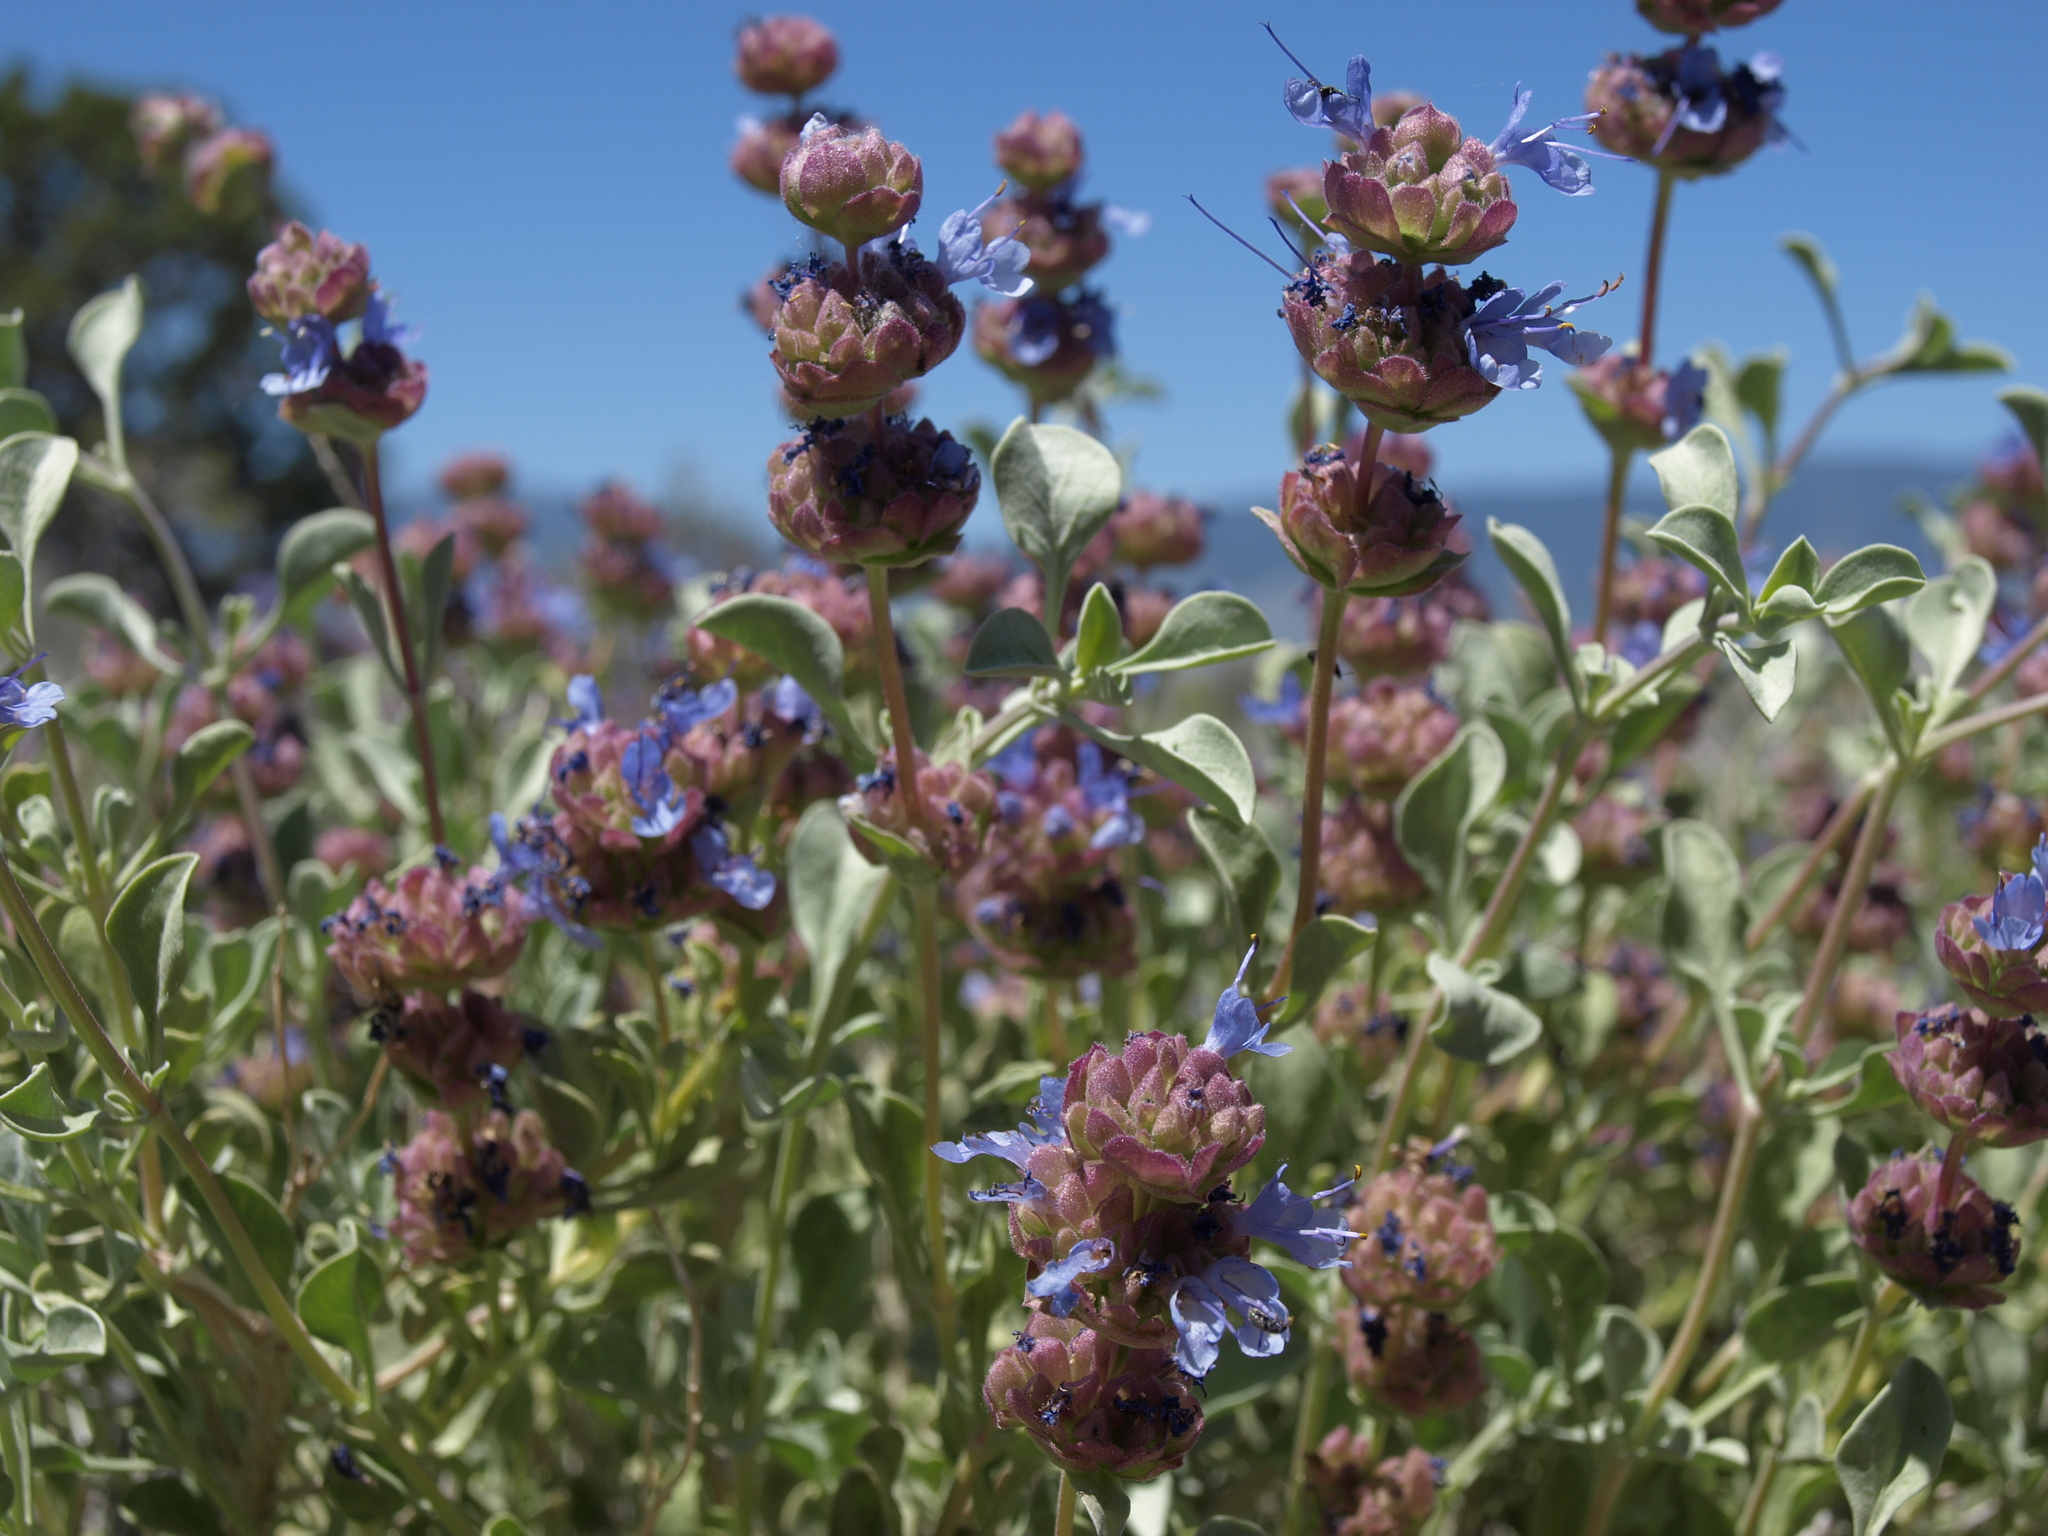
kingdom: Plantae
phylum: Tracheophyta
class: Magnoliopsida
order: Lamiales
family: Lamiaceae
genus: Salvia
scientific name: Salvia dorrii
